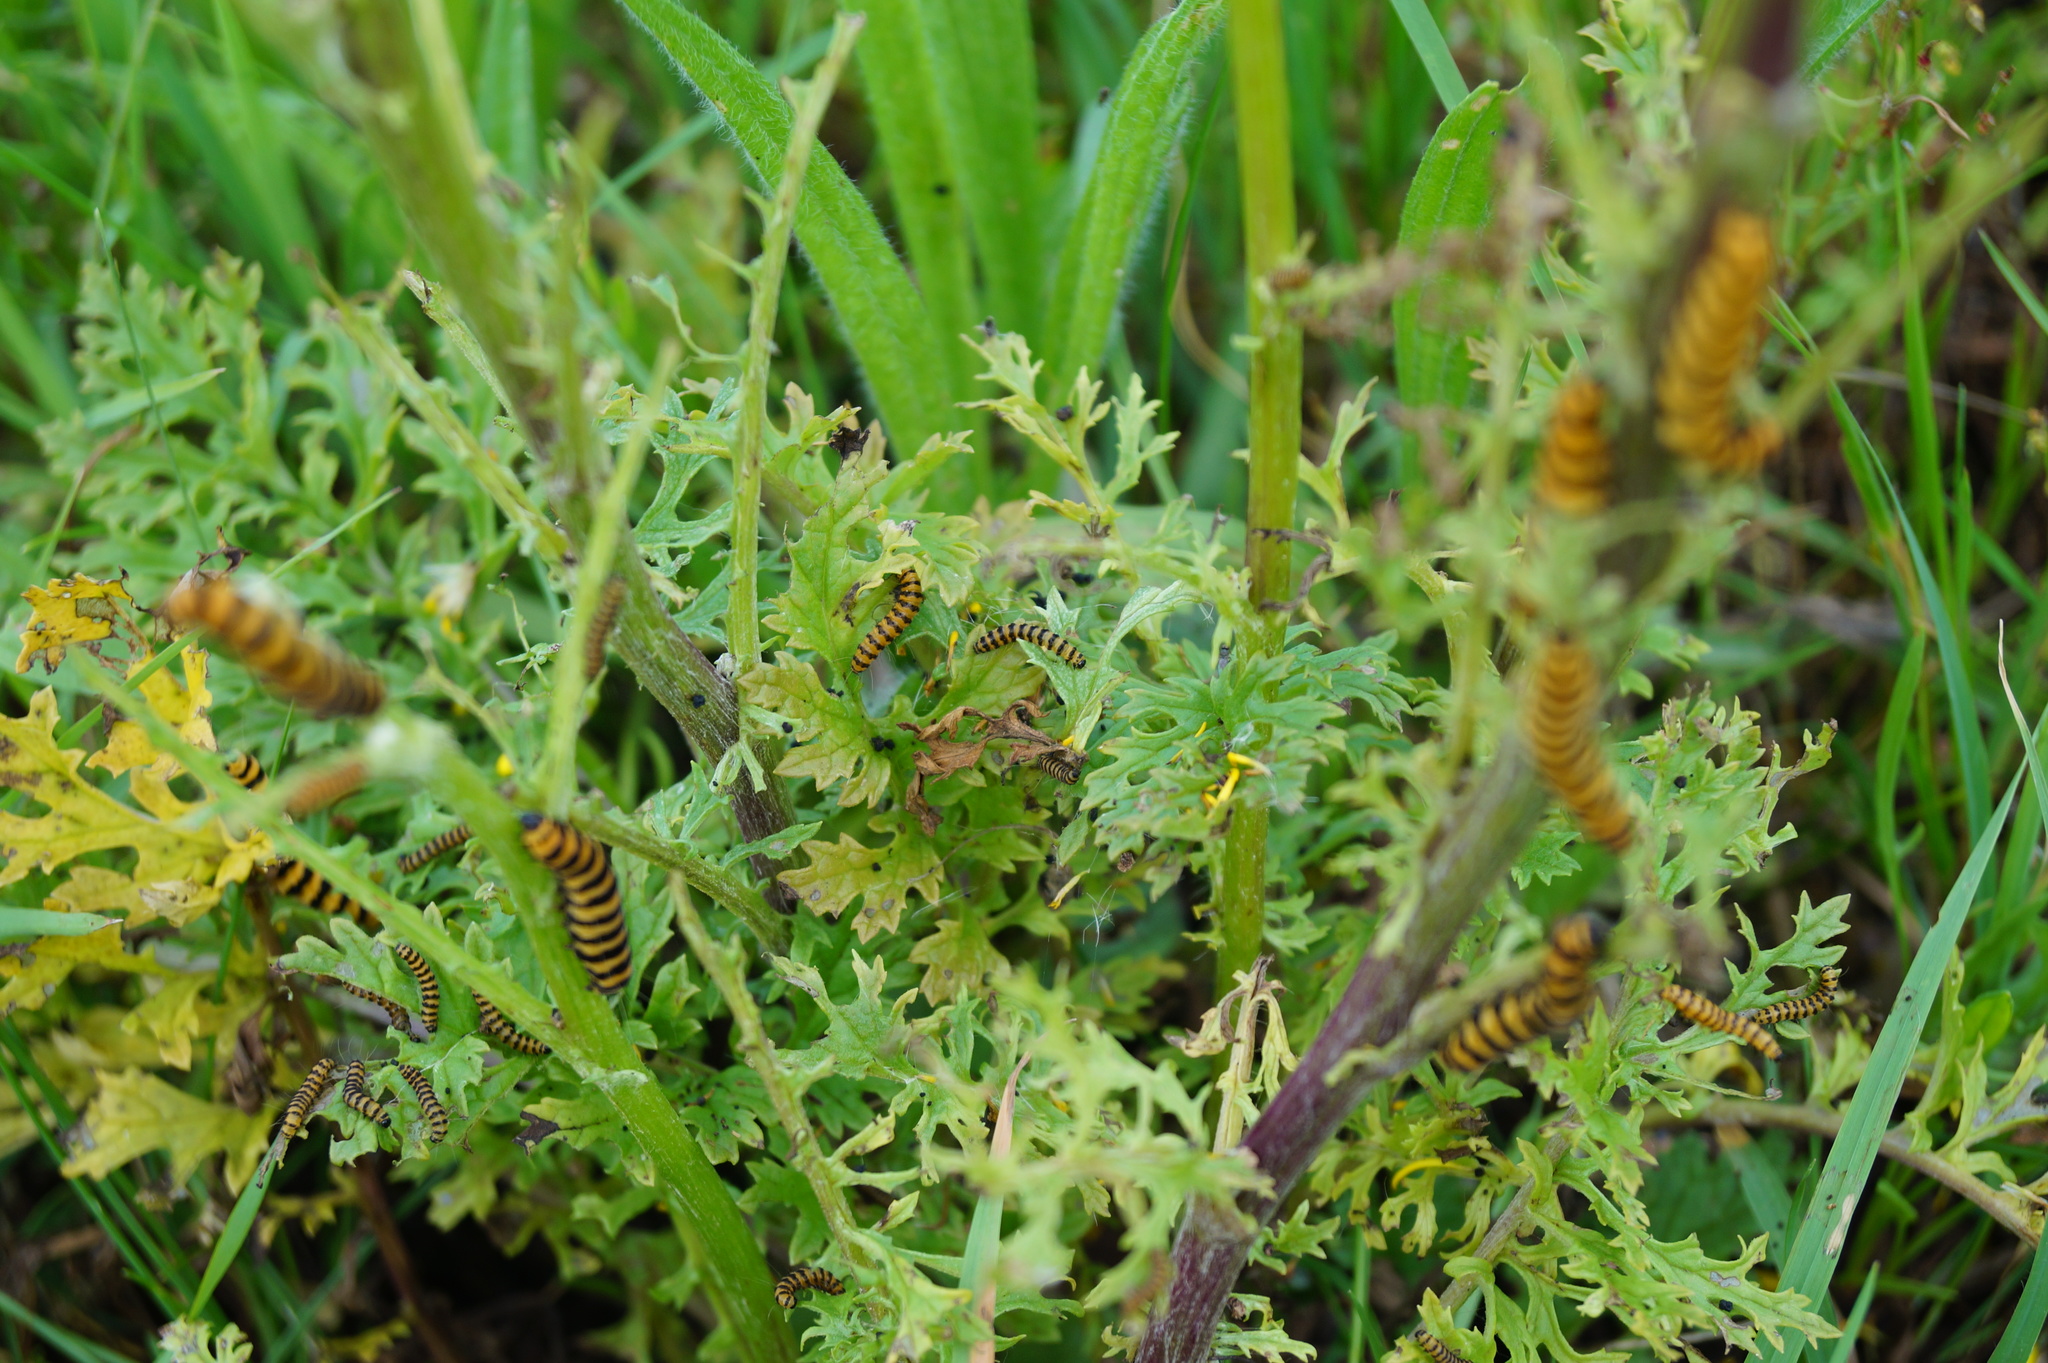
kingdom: Animalia
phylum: Arthropoda
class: Insecta
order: Lepidoptera
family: Erebidae
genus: Tyria
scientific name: Tyria jacobaeae
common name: Cinnabar
